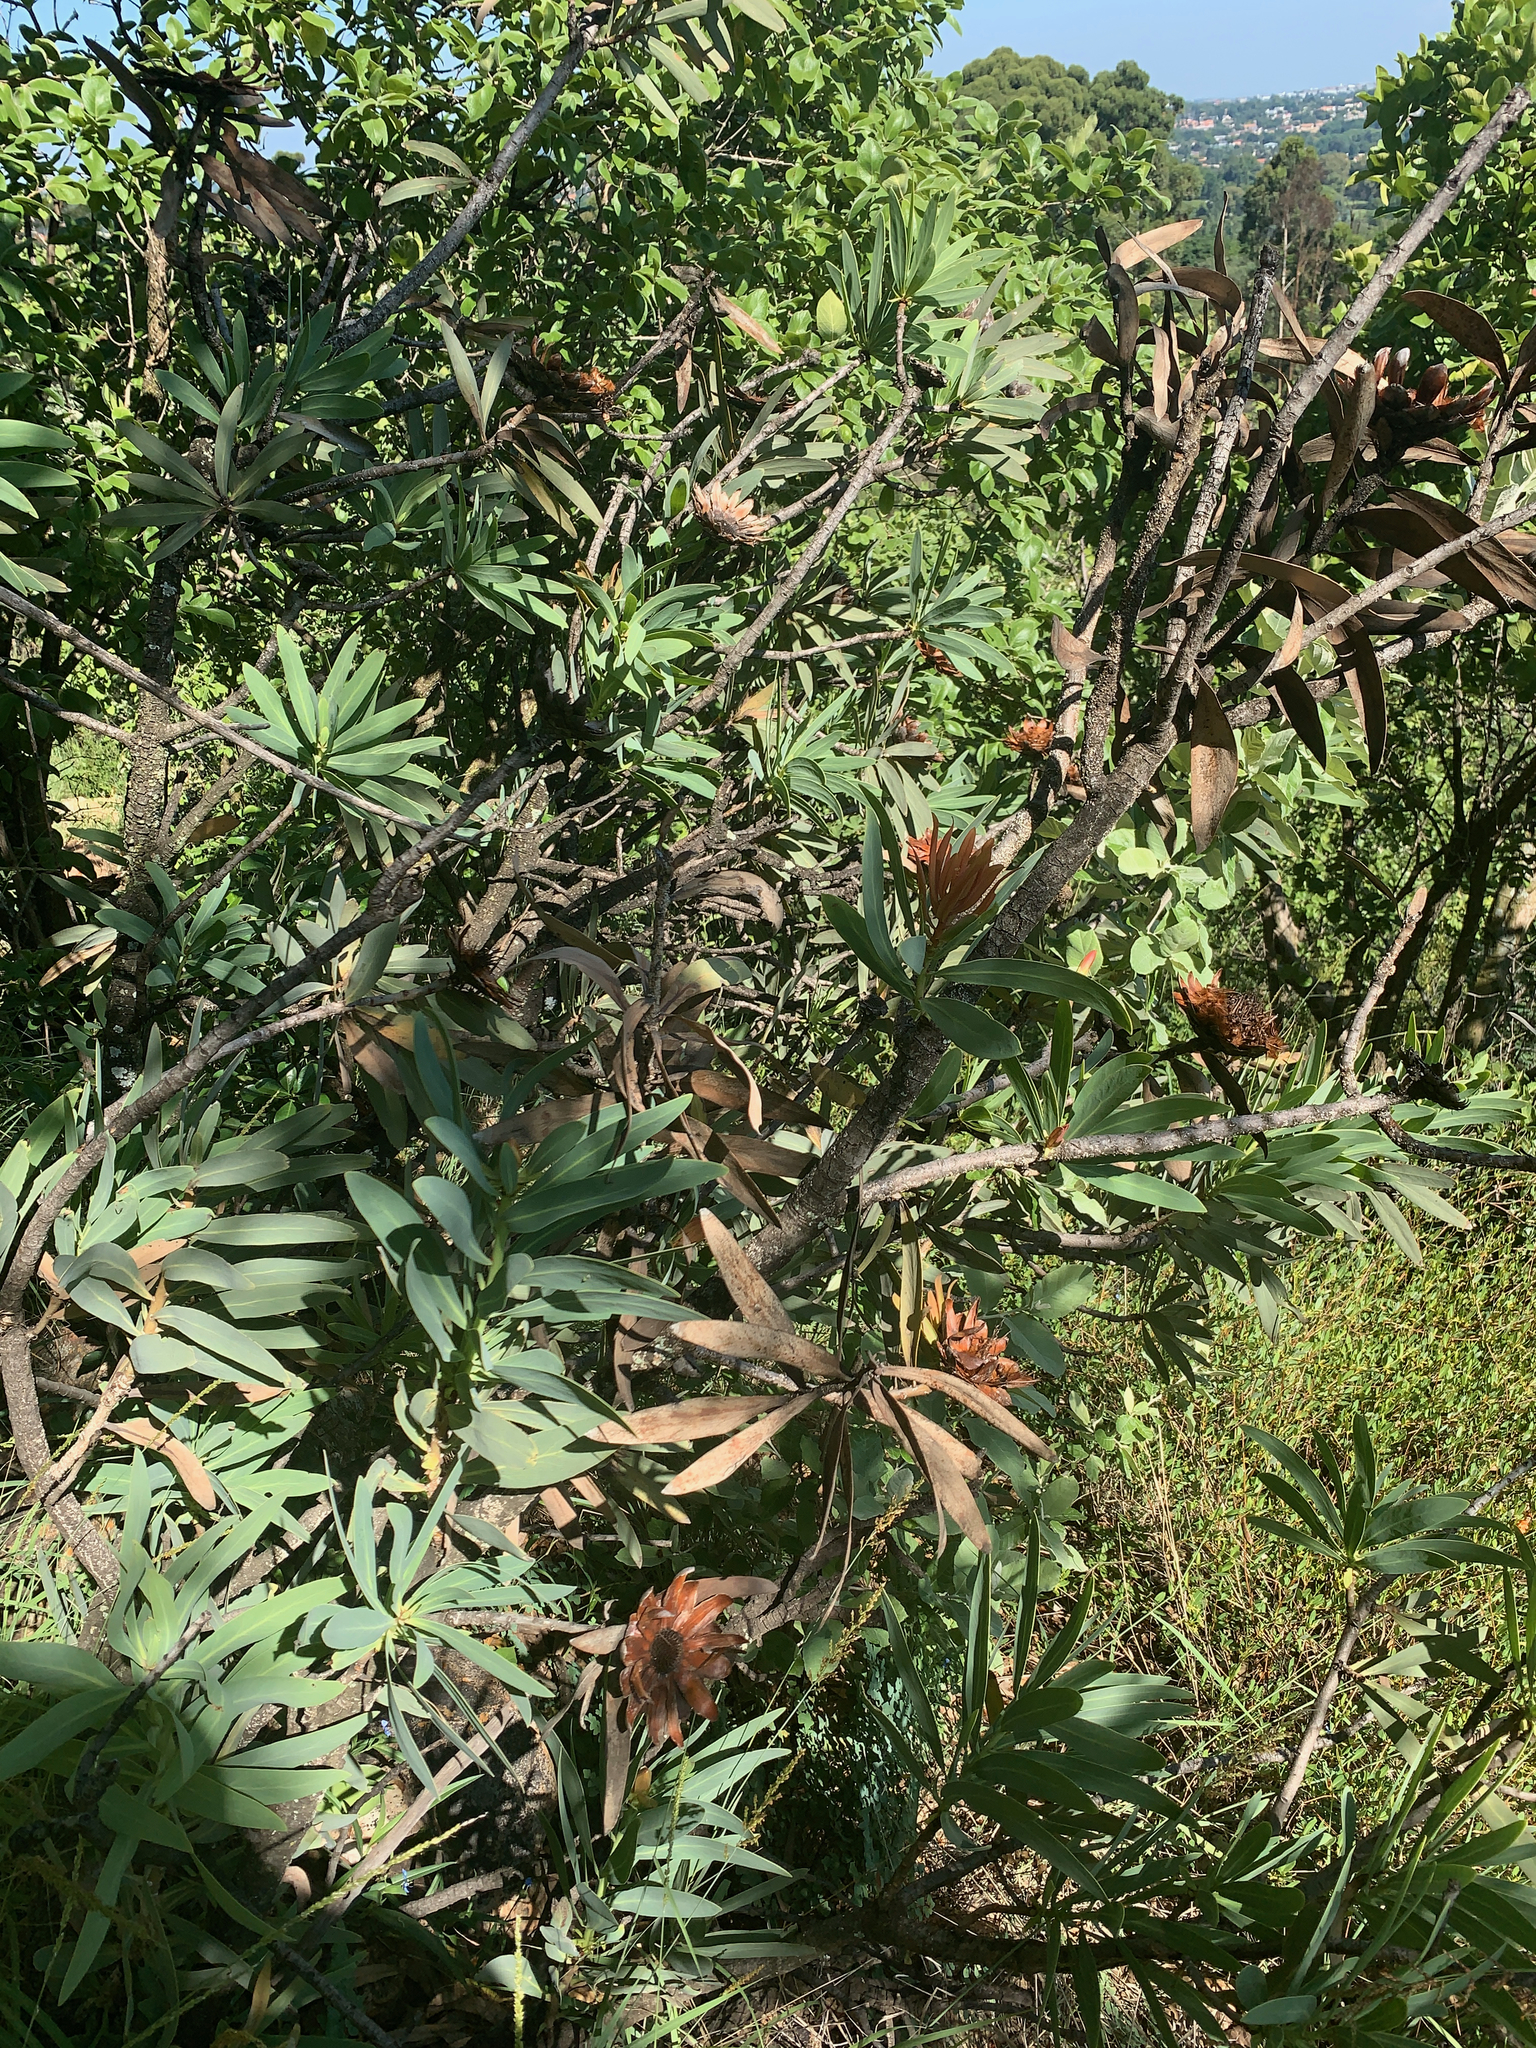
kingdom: Plantae
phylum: Tracheophyta
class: Magnoliopsida
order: Proteales
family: Proteaceae
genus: Protea
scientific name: Protea caffra
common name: Common sugarbush
